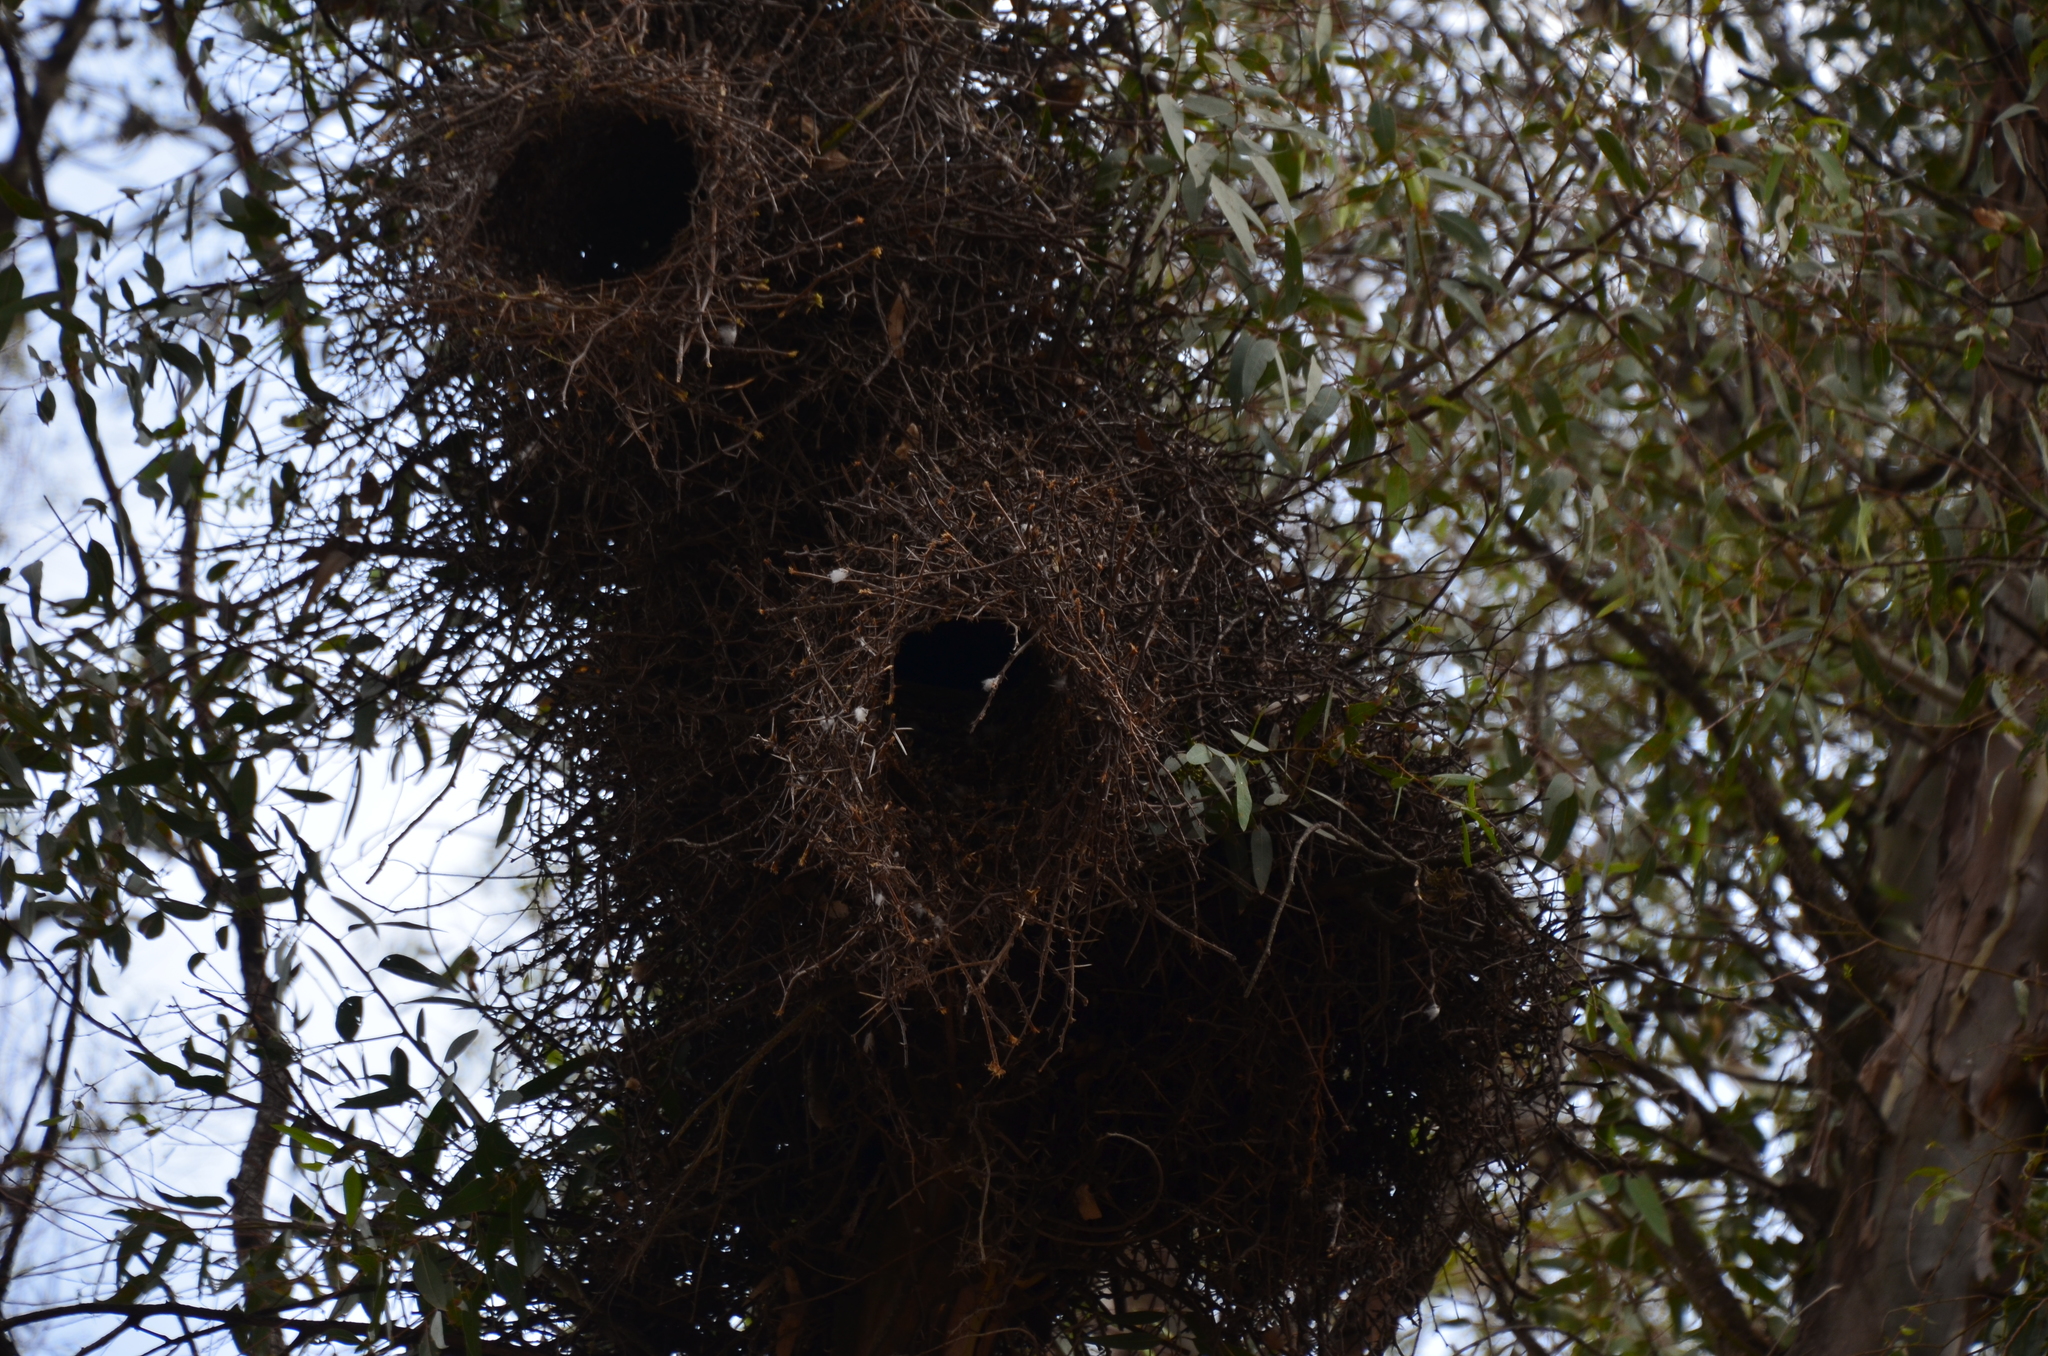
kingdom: Animalia
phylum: Chordata
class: Aves
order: Psittaciformes
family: Psittacidae
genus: Myiopsitta
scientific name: Myiopsitta monachus
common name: Monk parakeet
